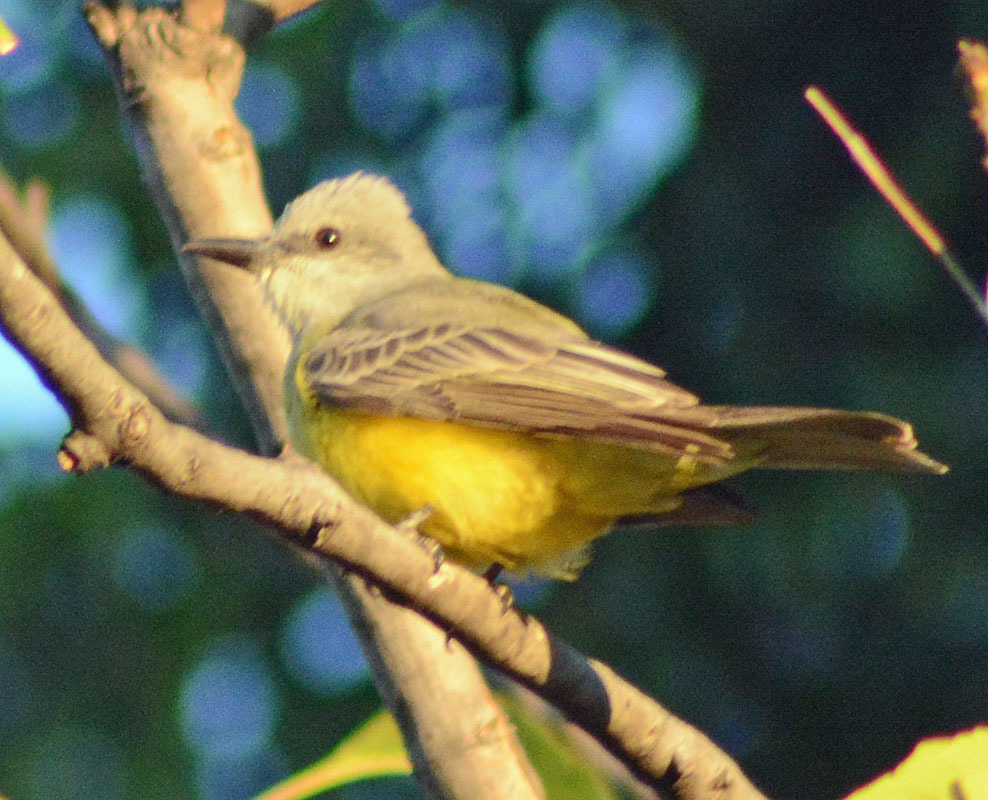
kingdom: Animalia
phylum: Chordata
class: Aves
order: Passeriformes
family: Tyrannidae
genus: Tyrannus
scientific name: Tyrannus melancholicus
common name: Tropical kingbird
